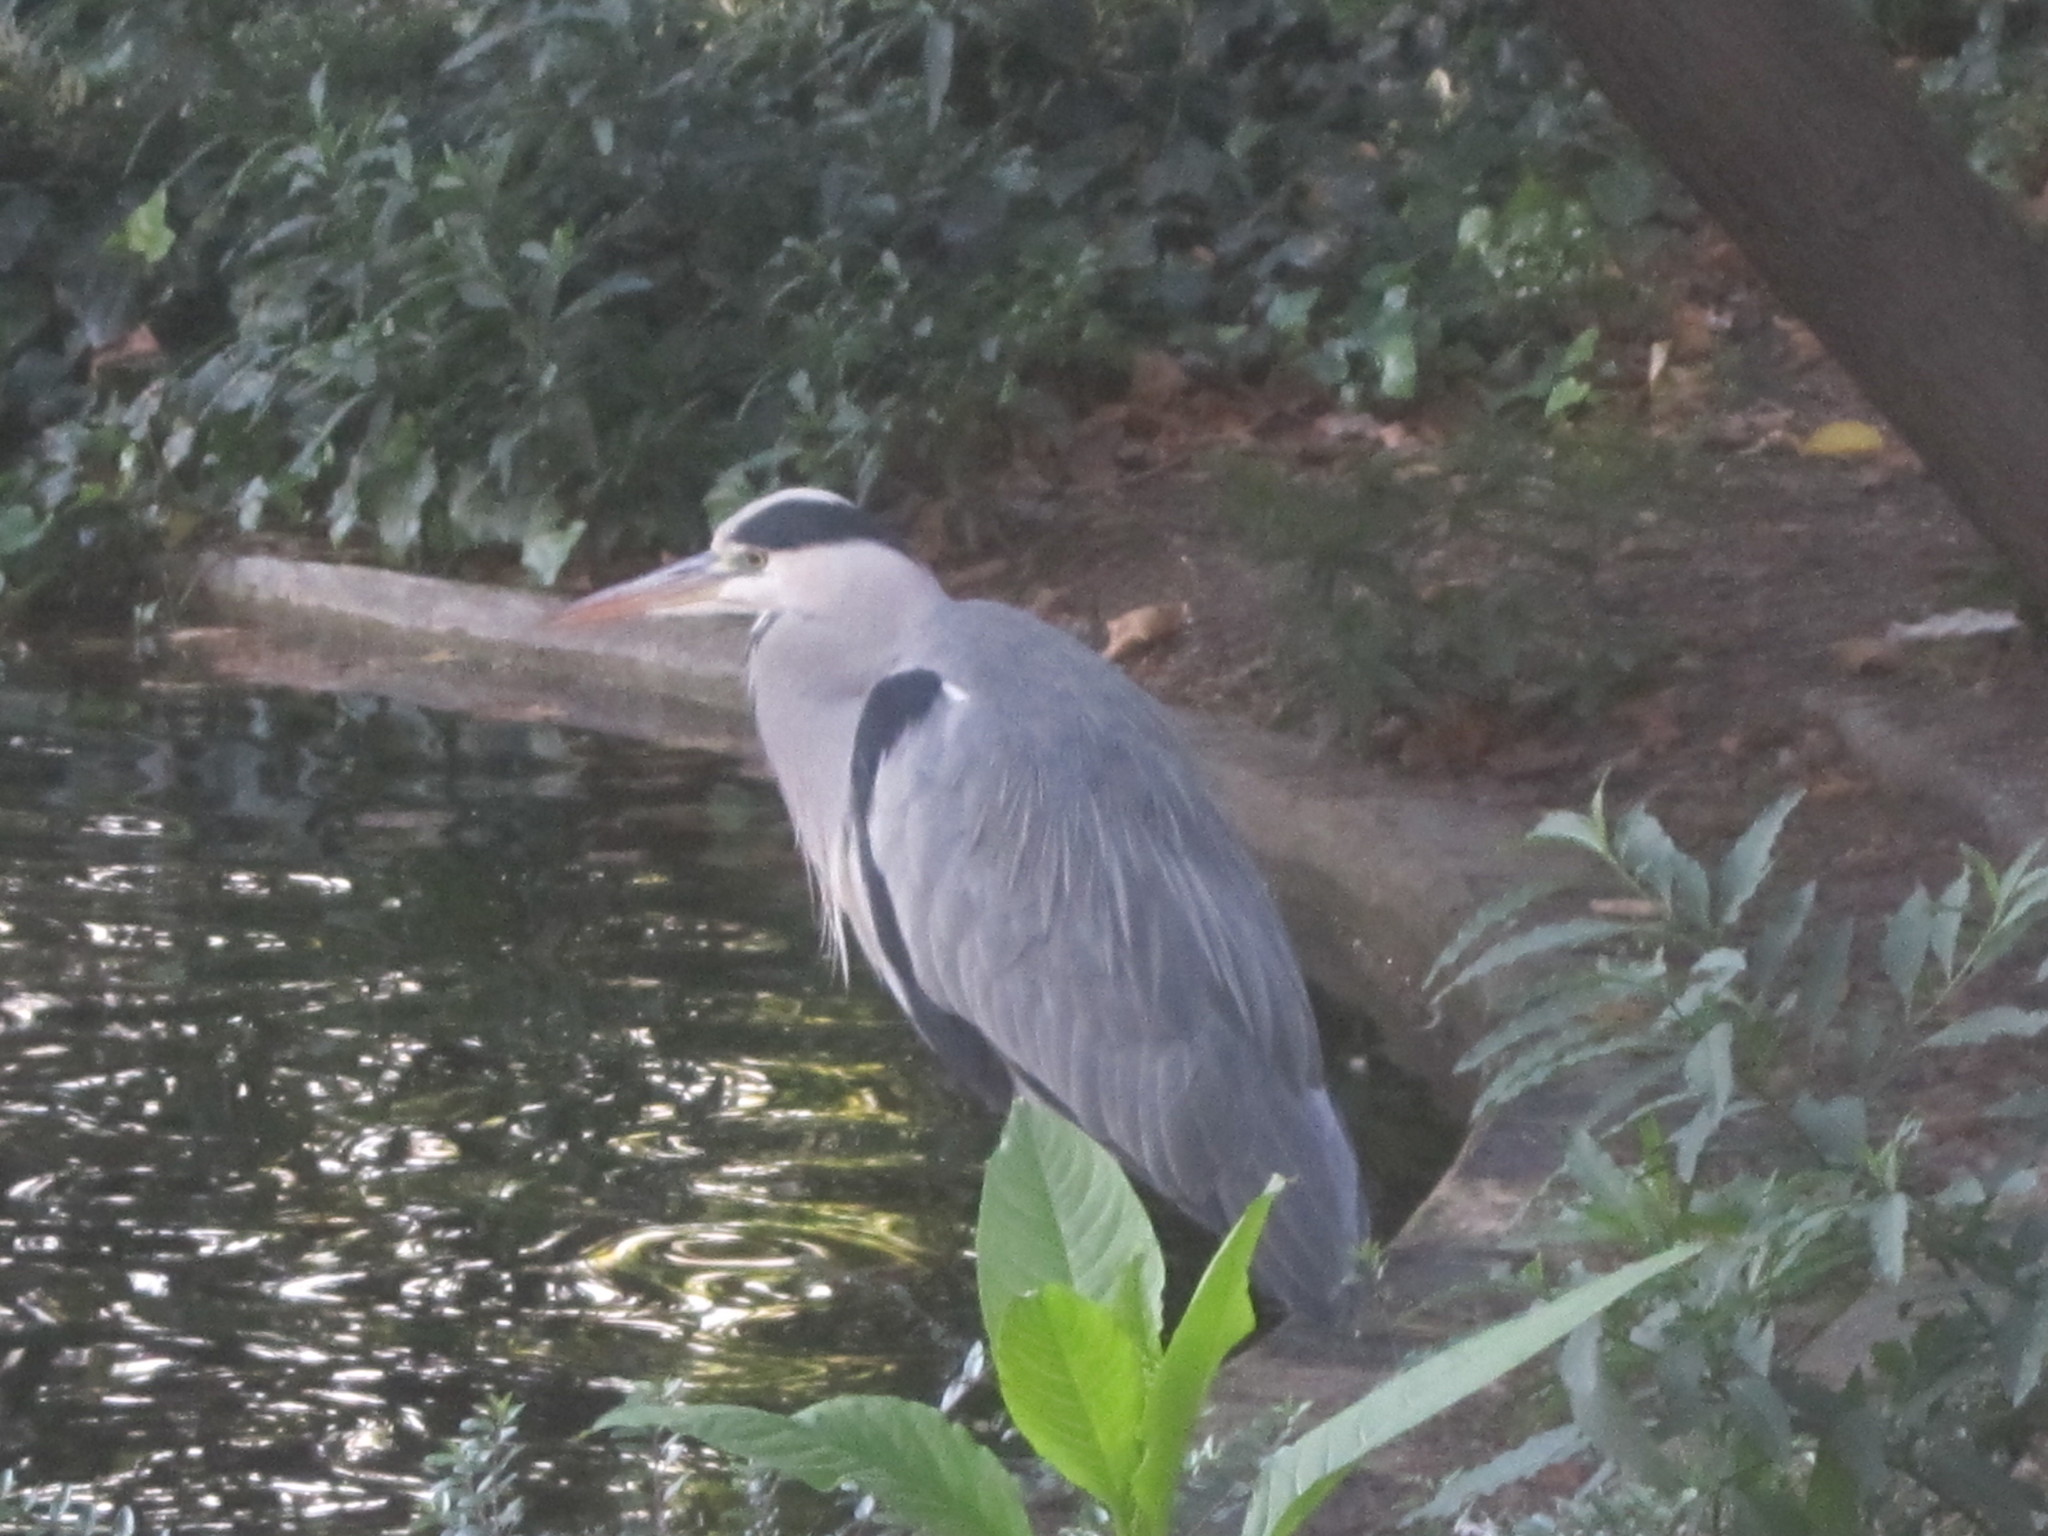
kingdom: Animalia
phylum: Chordata
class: Aves
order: Pelecaniformes
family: Ardeidae
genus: Ardea
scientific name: Ardea cinerea
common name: Grey heron
